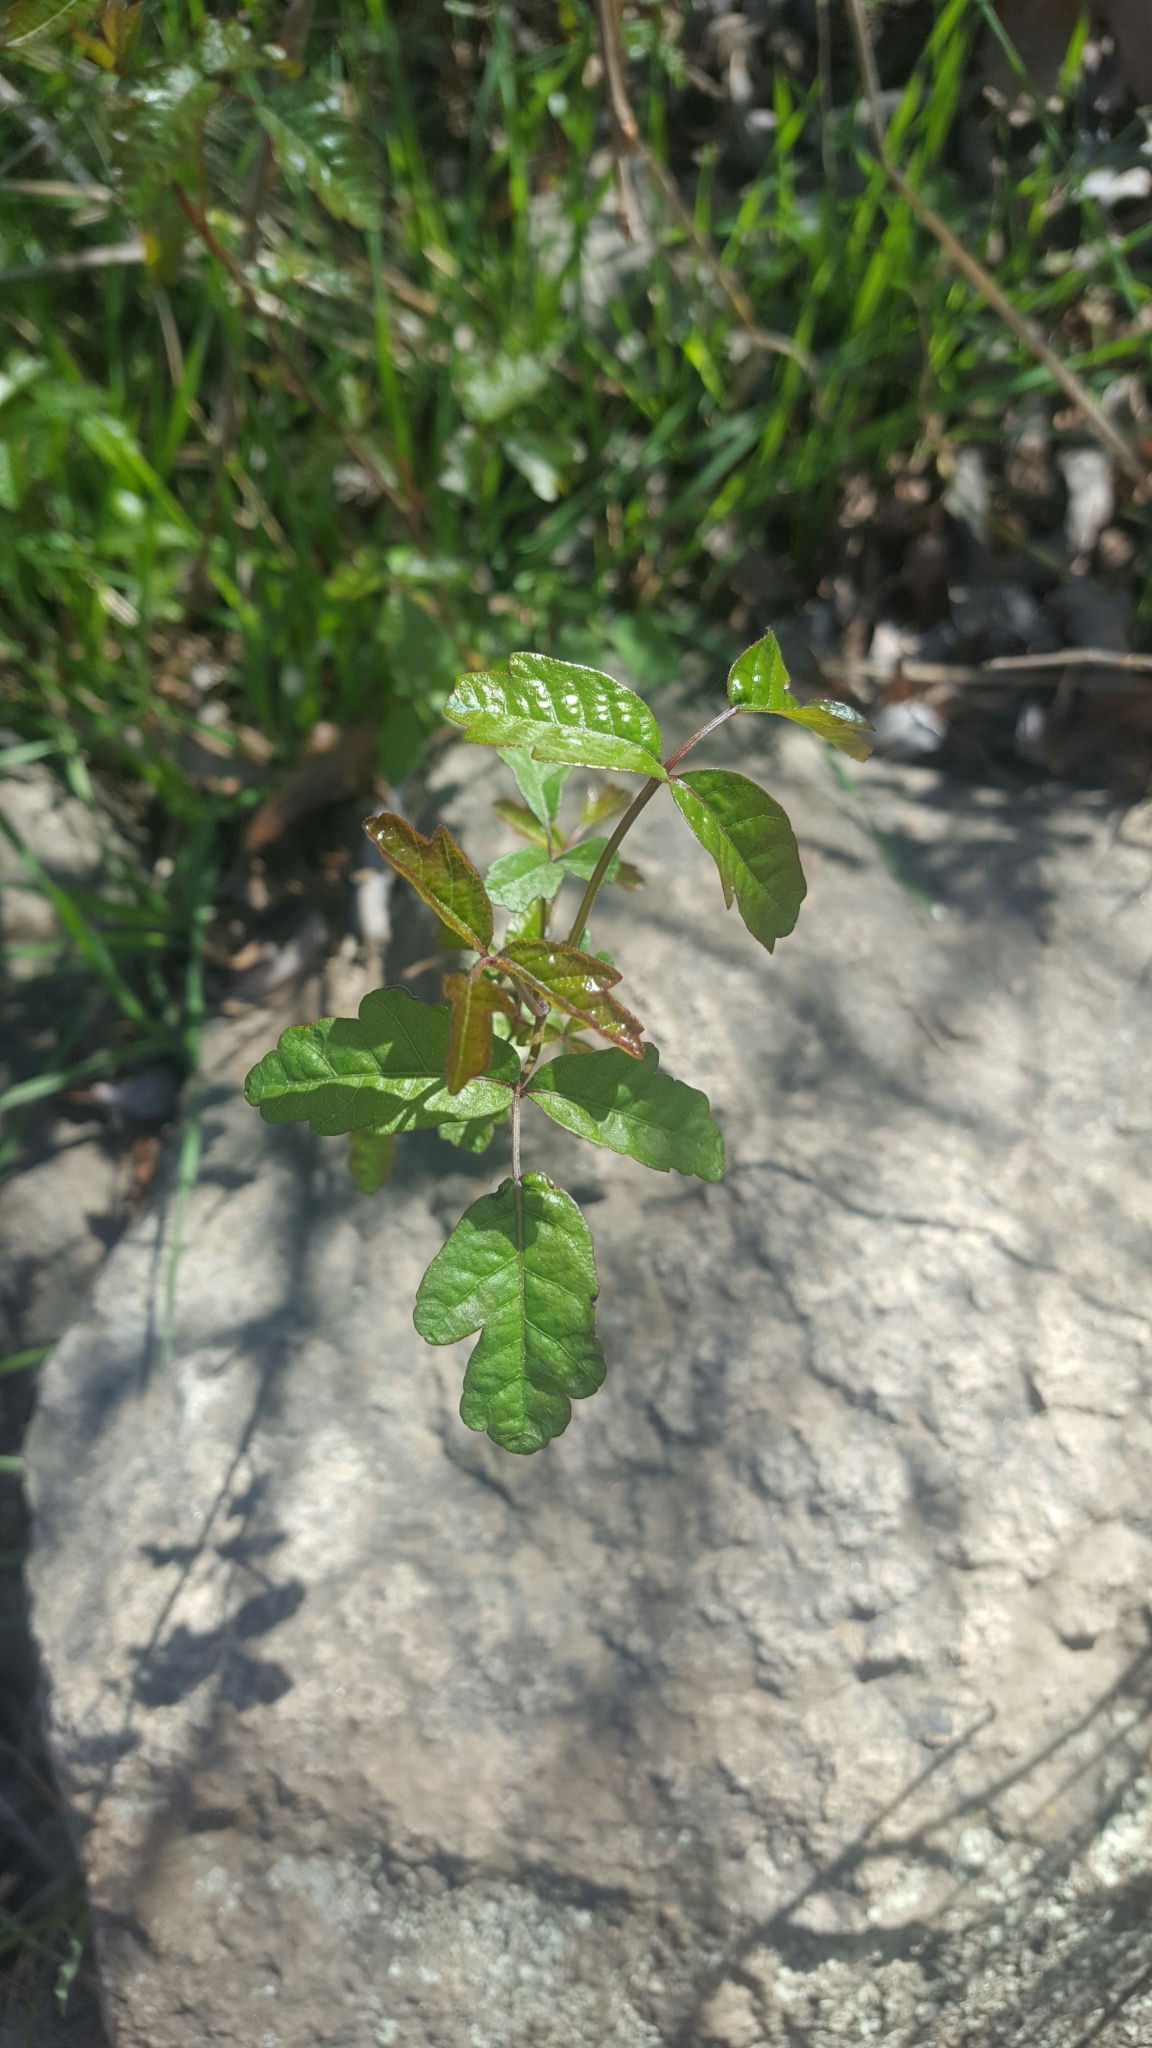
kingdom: Plantae
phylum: Tracheophyta
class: Magnoliopsida
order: Sapindales
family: Anacardiaceae
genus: Toxicodendron
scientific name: Toxicodendron diversilobum
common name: Pacific poison-oak
